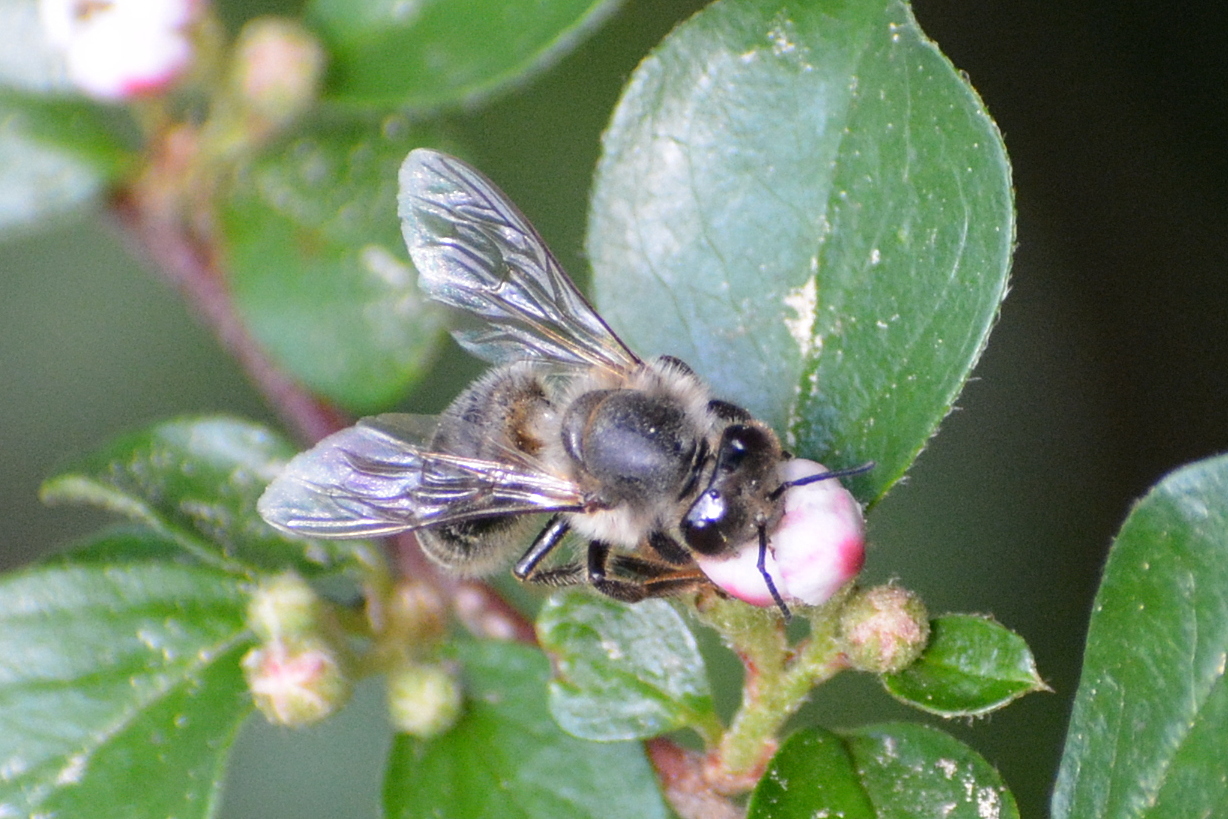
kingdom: Animalia
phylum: Arthropoda
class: Insecta
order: Hymenoptera
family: Apidae
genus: Apis
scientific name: Apis mellifera
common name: Honey bee
